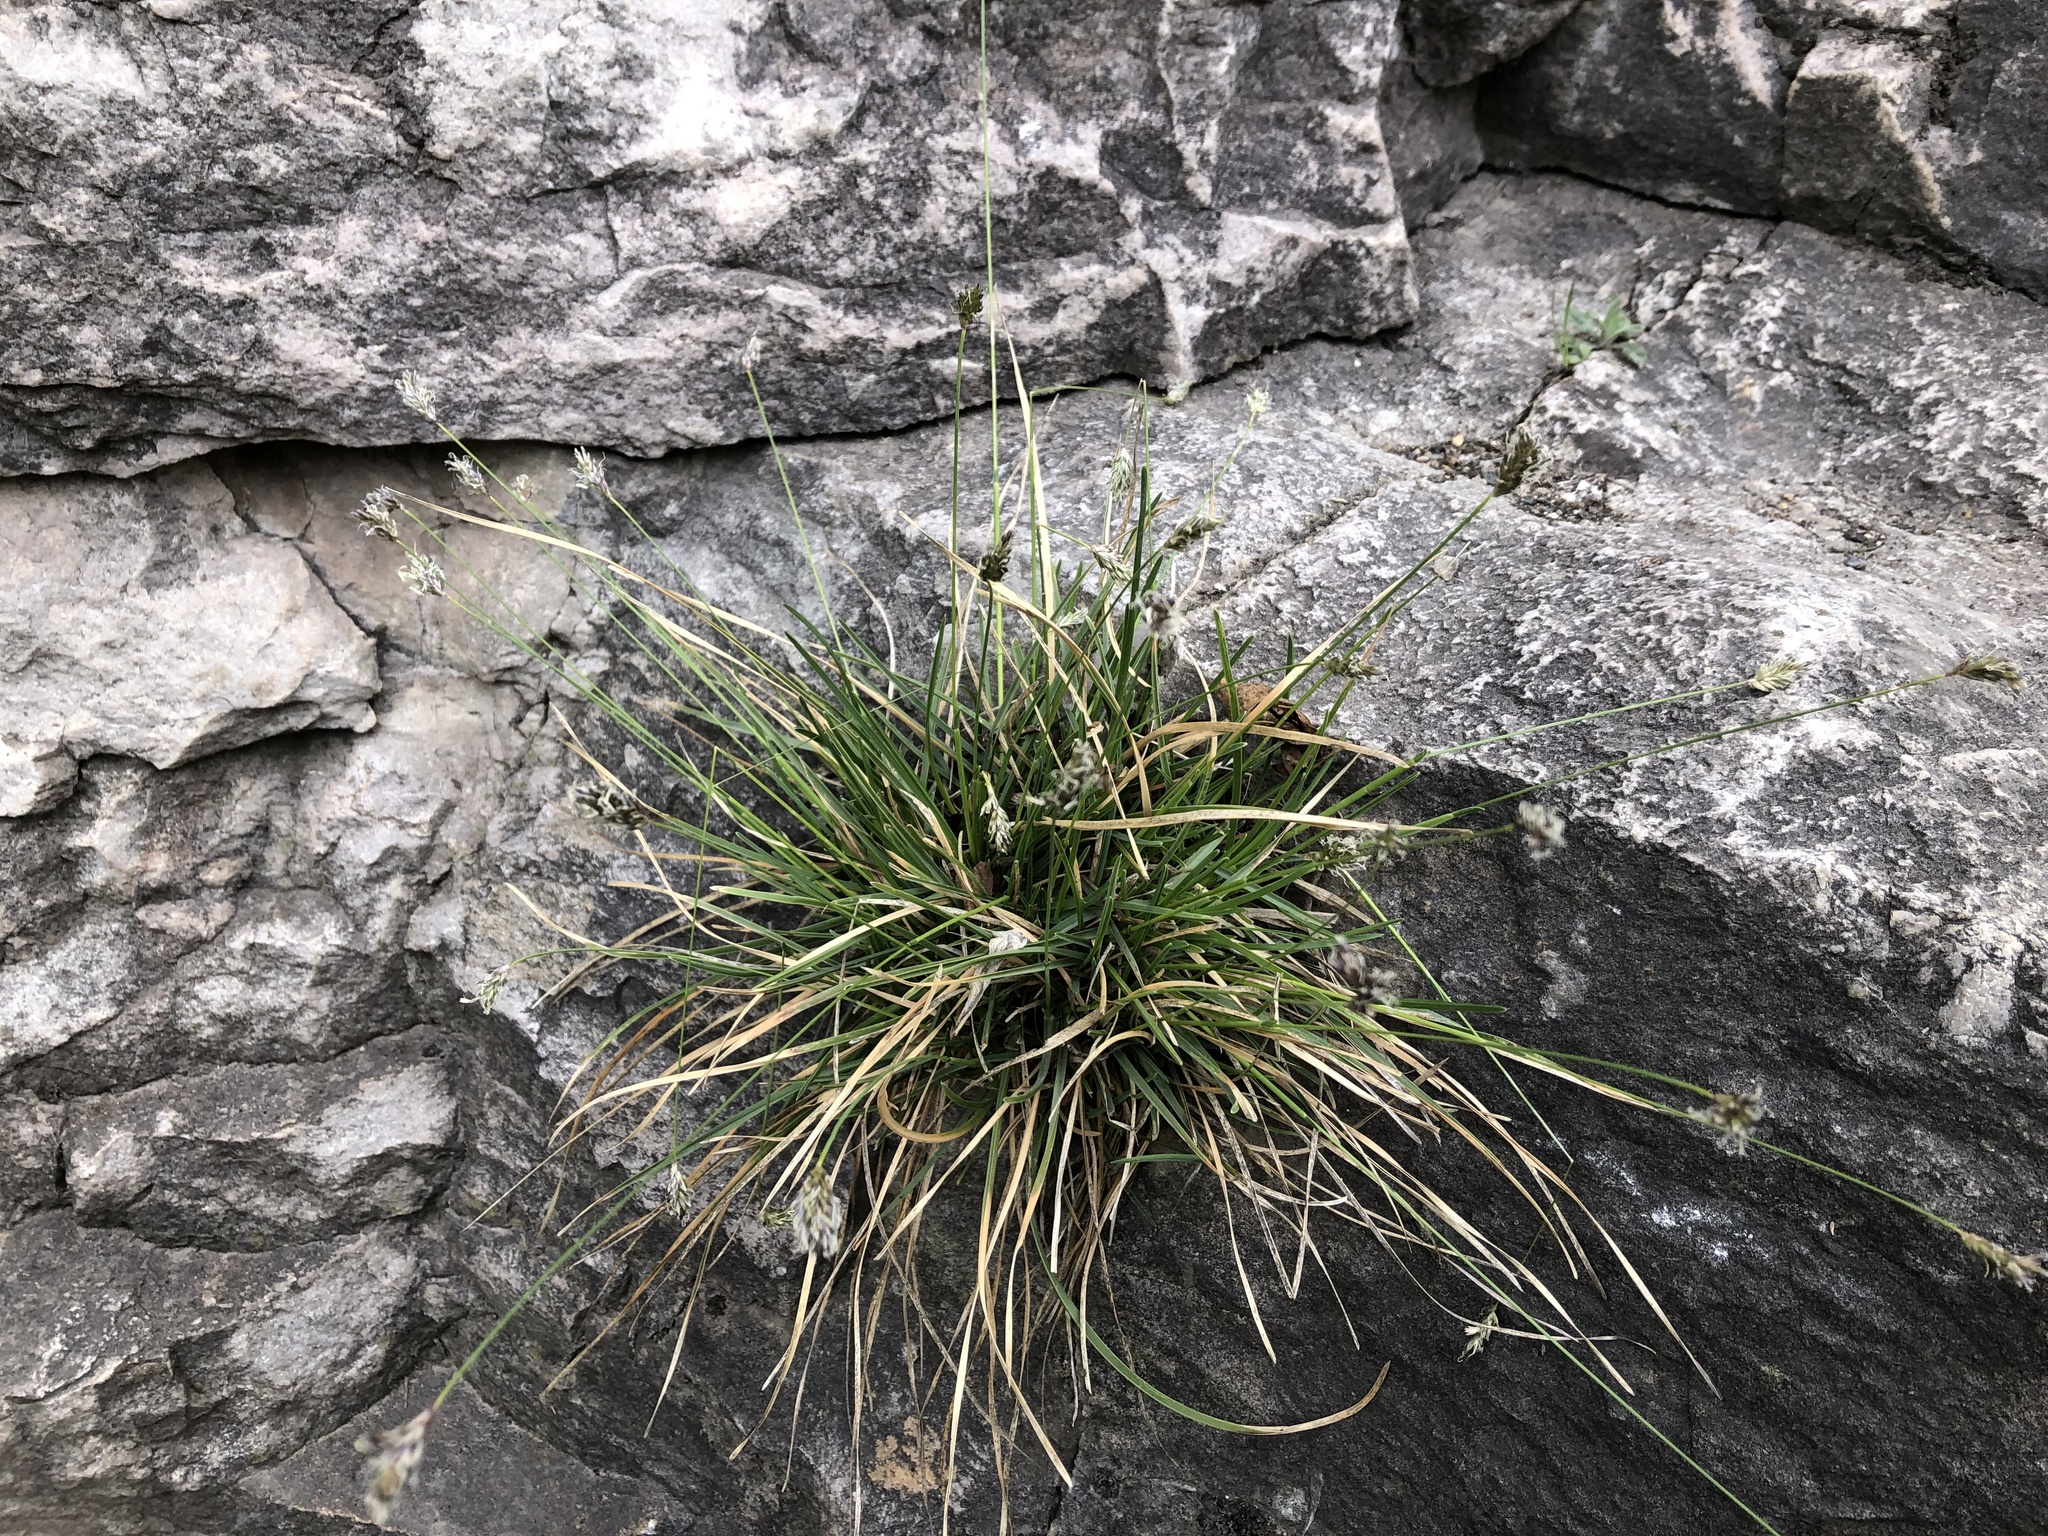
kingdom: Plantae
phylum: Tracheophyta
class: Liliopsida
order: Poales
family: Poaceae
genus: Sesleria
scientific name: Sesleria caerulea
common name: Blue moor-grass
